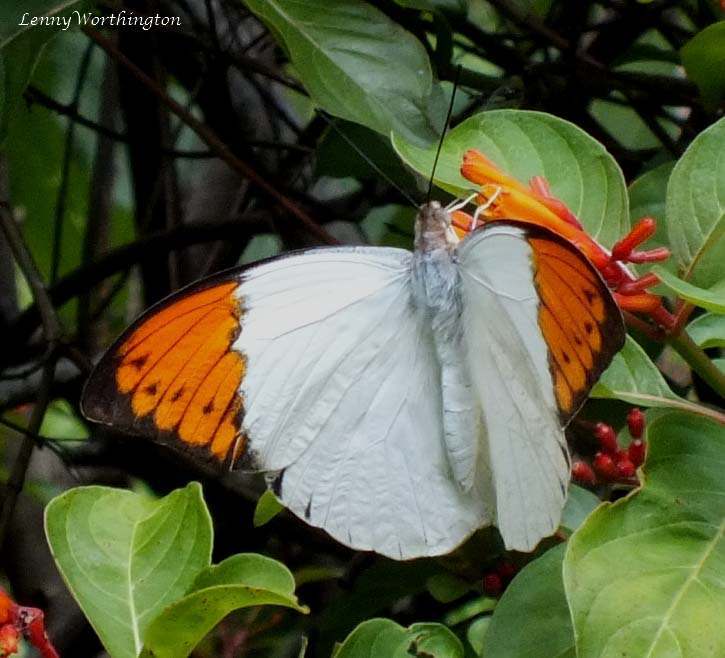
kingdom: Animalia
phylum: Arthropoda
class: Insecta
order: Lepidoptera
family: Pieridae
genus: Hebomoia
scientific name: Hebomoia glaucippe
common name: Great orange tip
